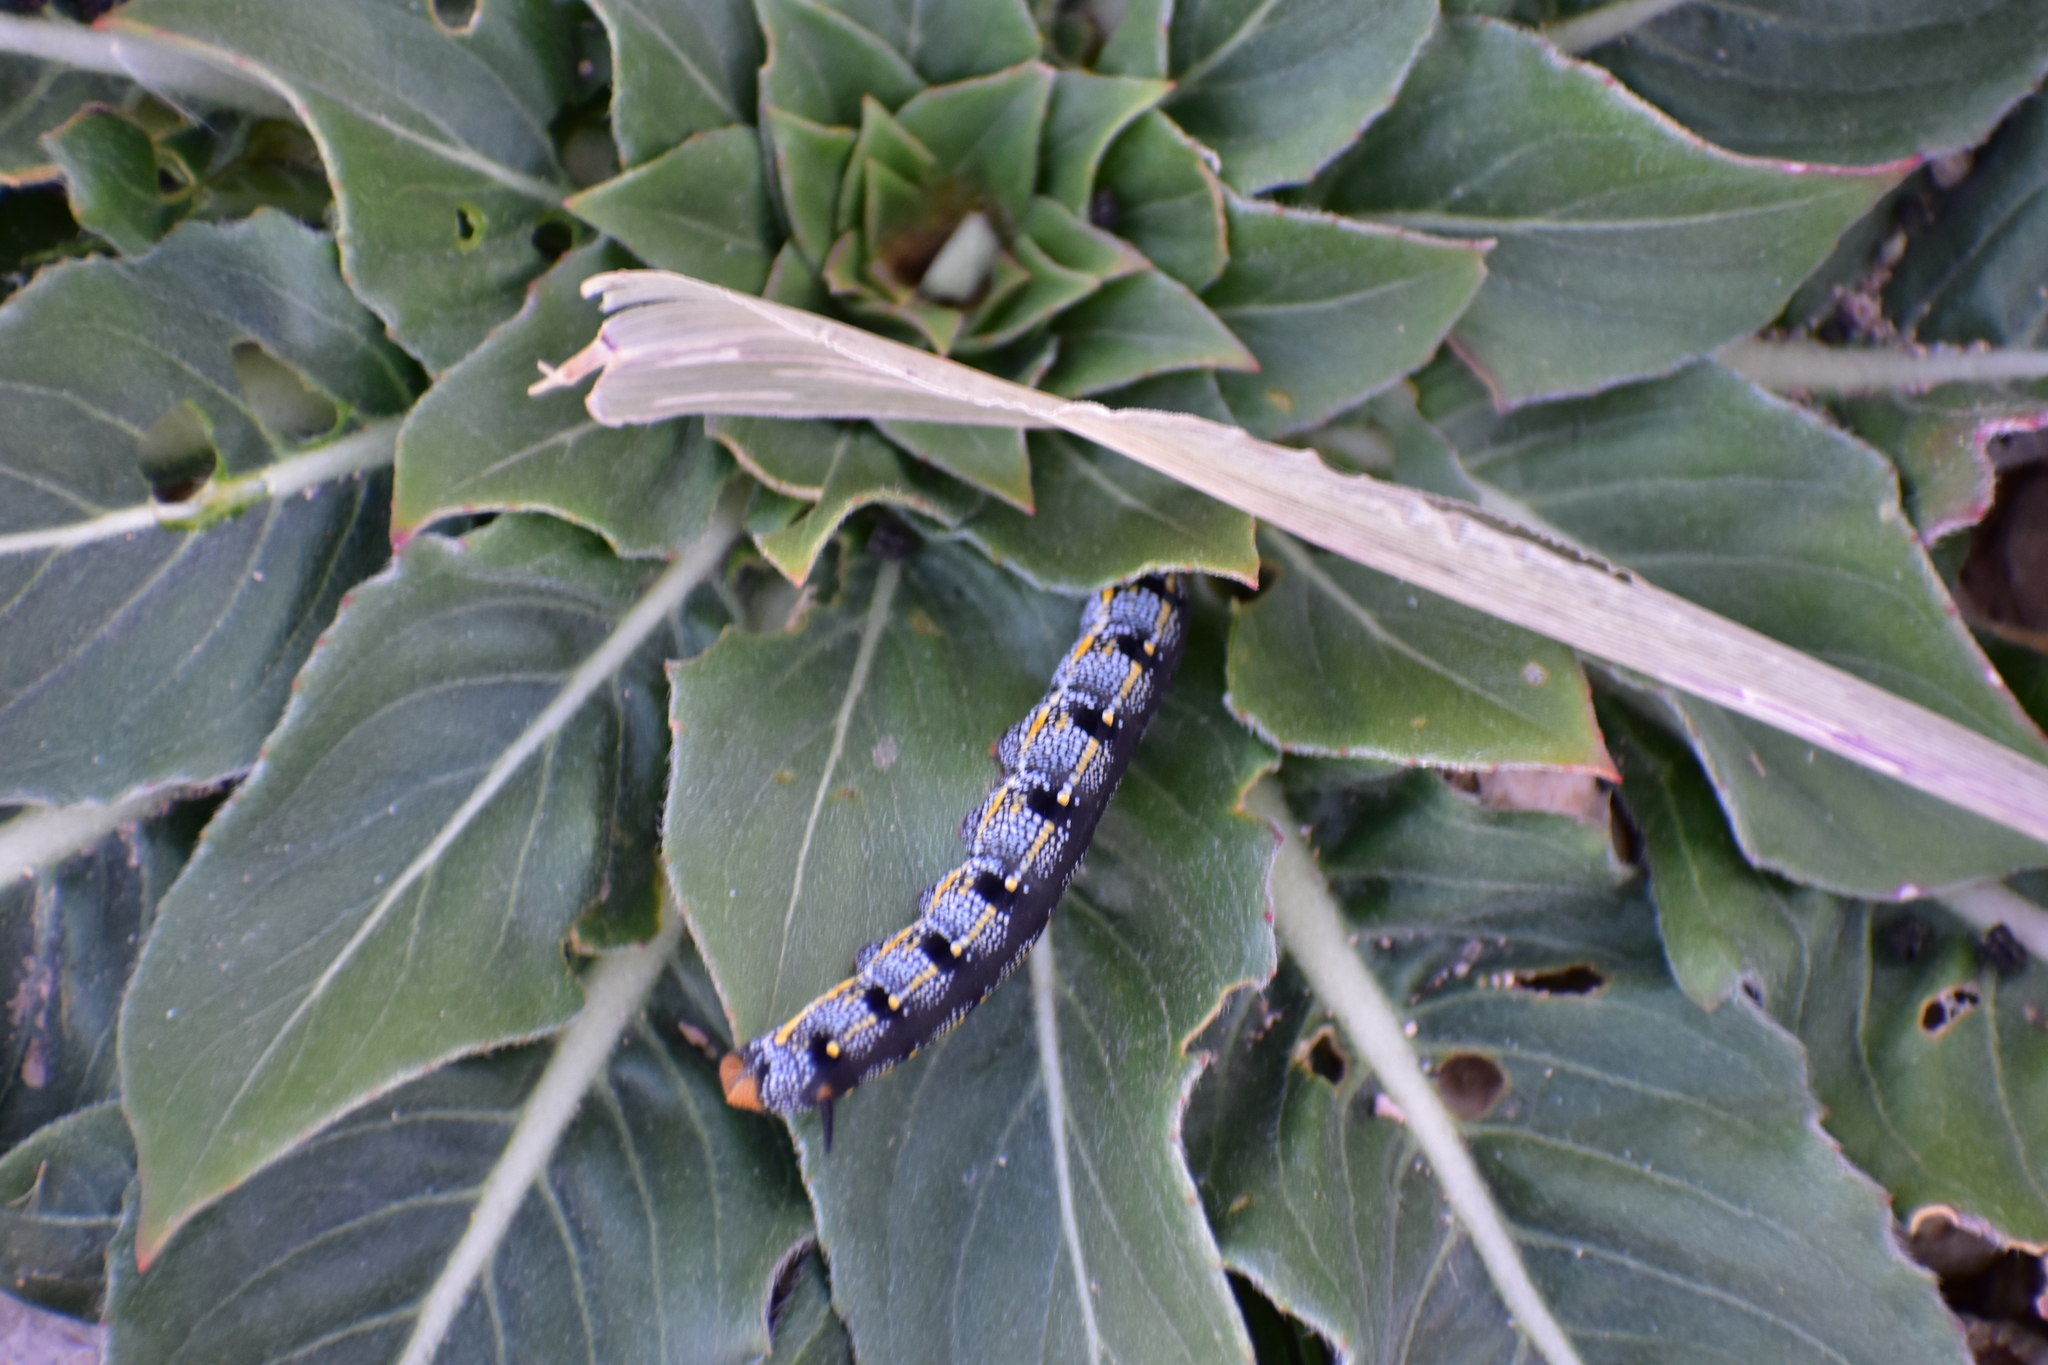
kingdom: Animalia
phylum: Arthropoda
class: Insecta
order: Lepidoptera
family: Sphingidae
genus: Hyles
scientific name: Hyles lineata
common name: White-lined sphinx
